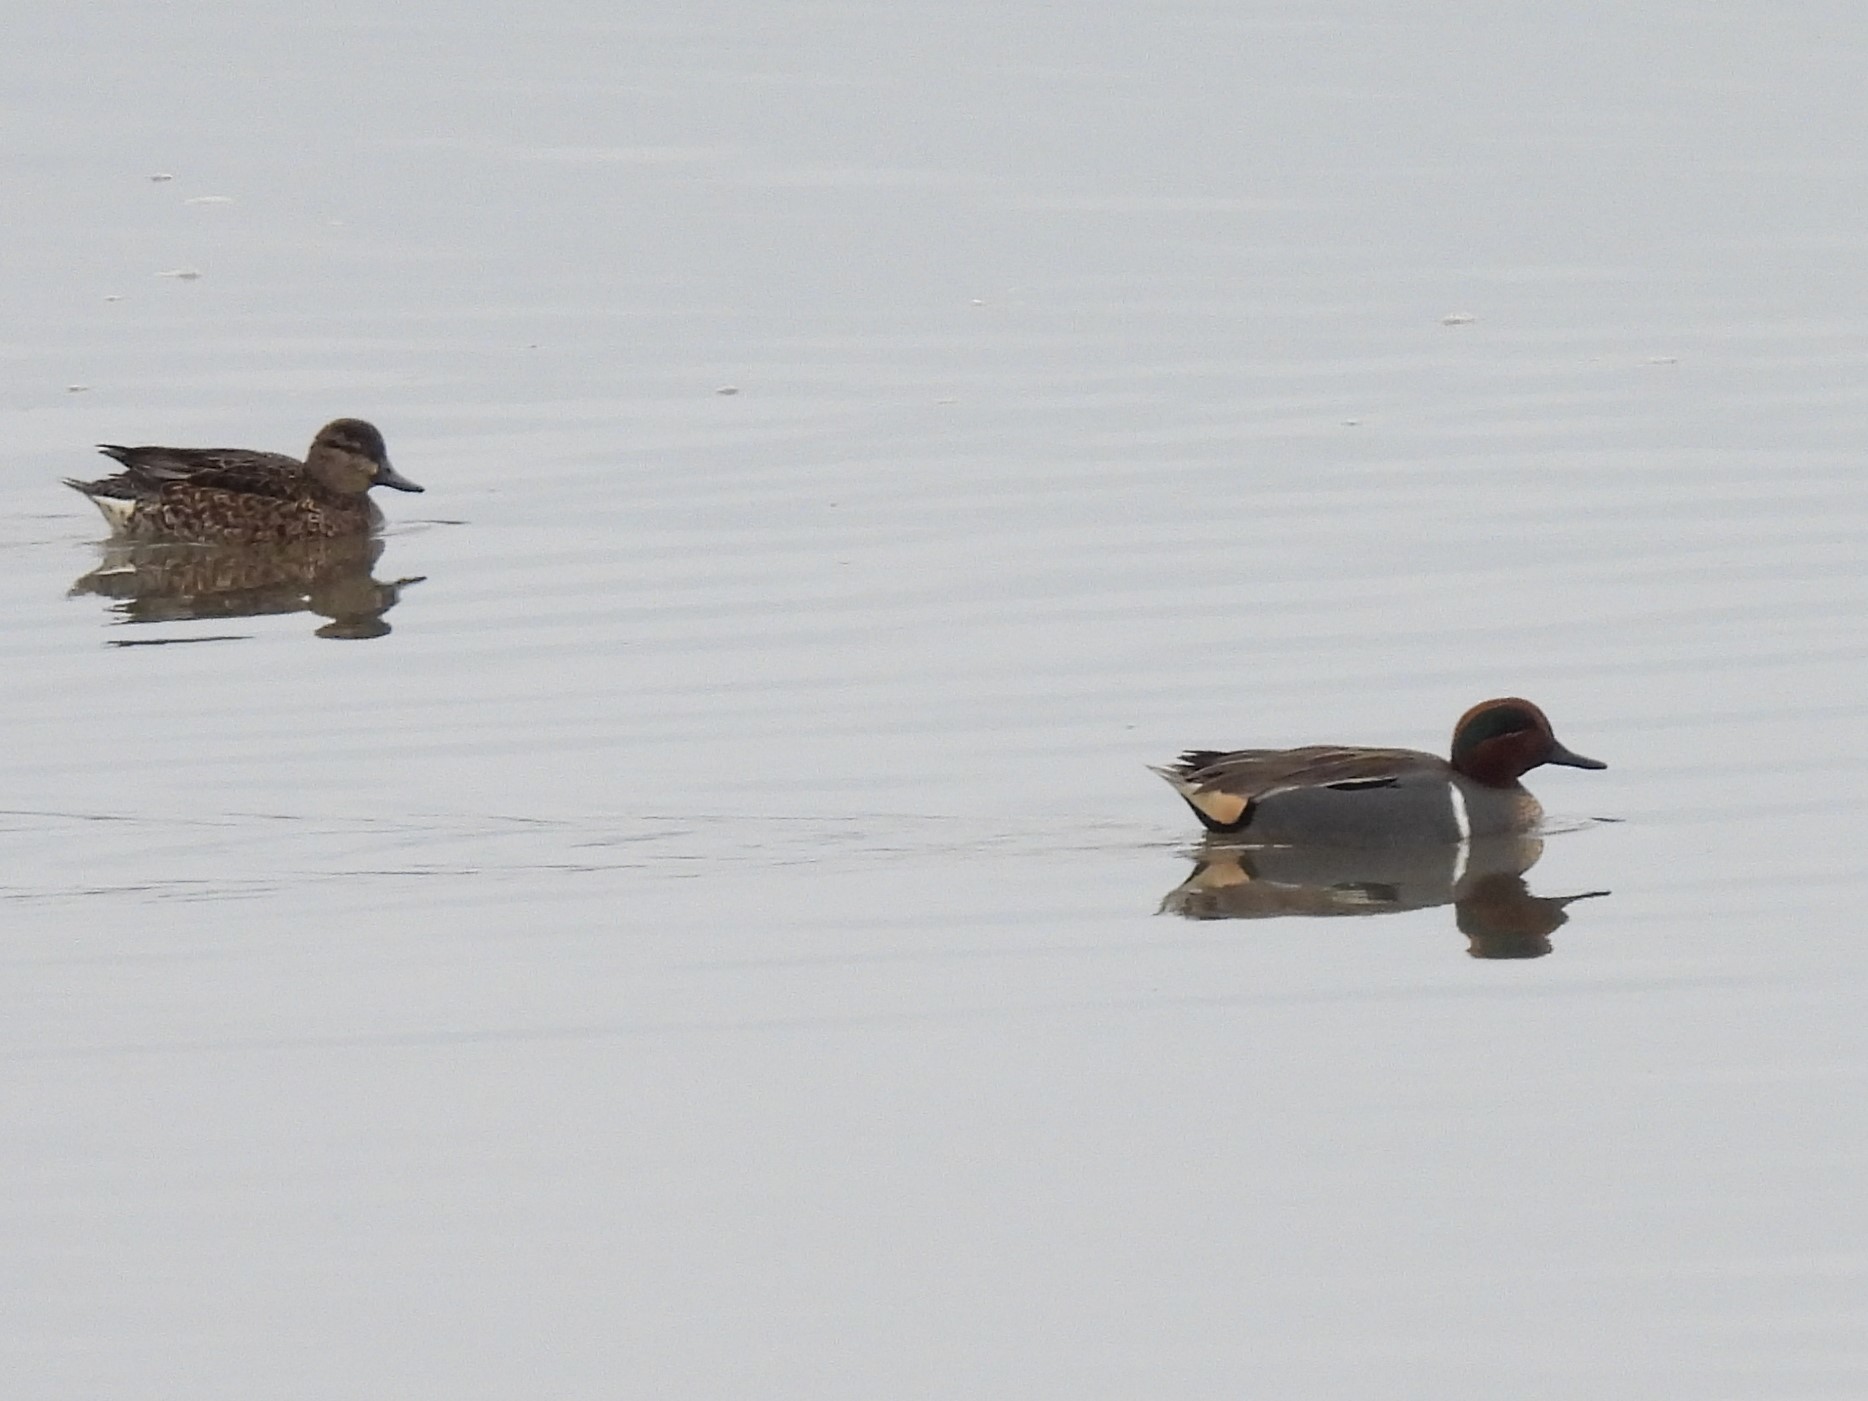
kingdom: Animalia
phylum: Chordata
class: Aves
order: Anseriformes
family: Anatidae
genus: Anas
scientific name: Anas crecca
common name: Eurasian teal
